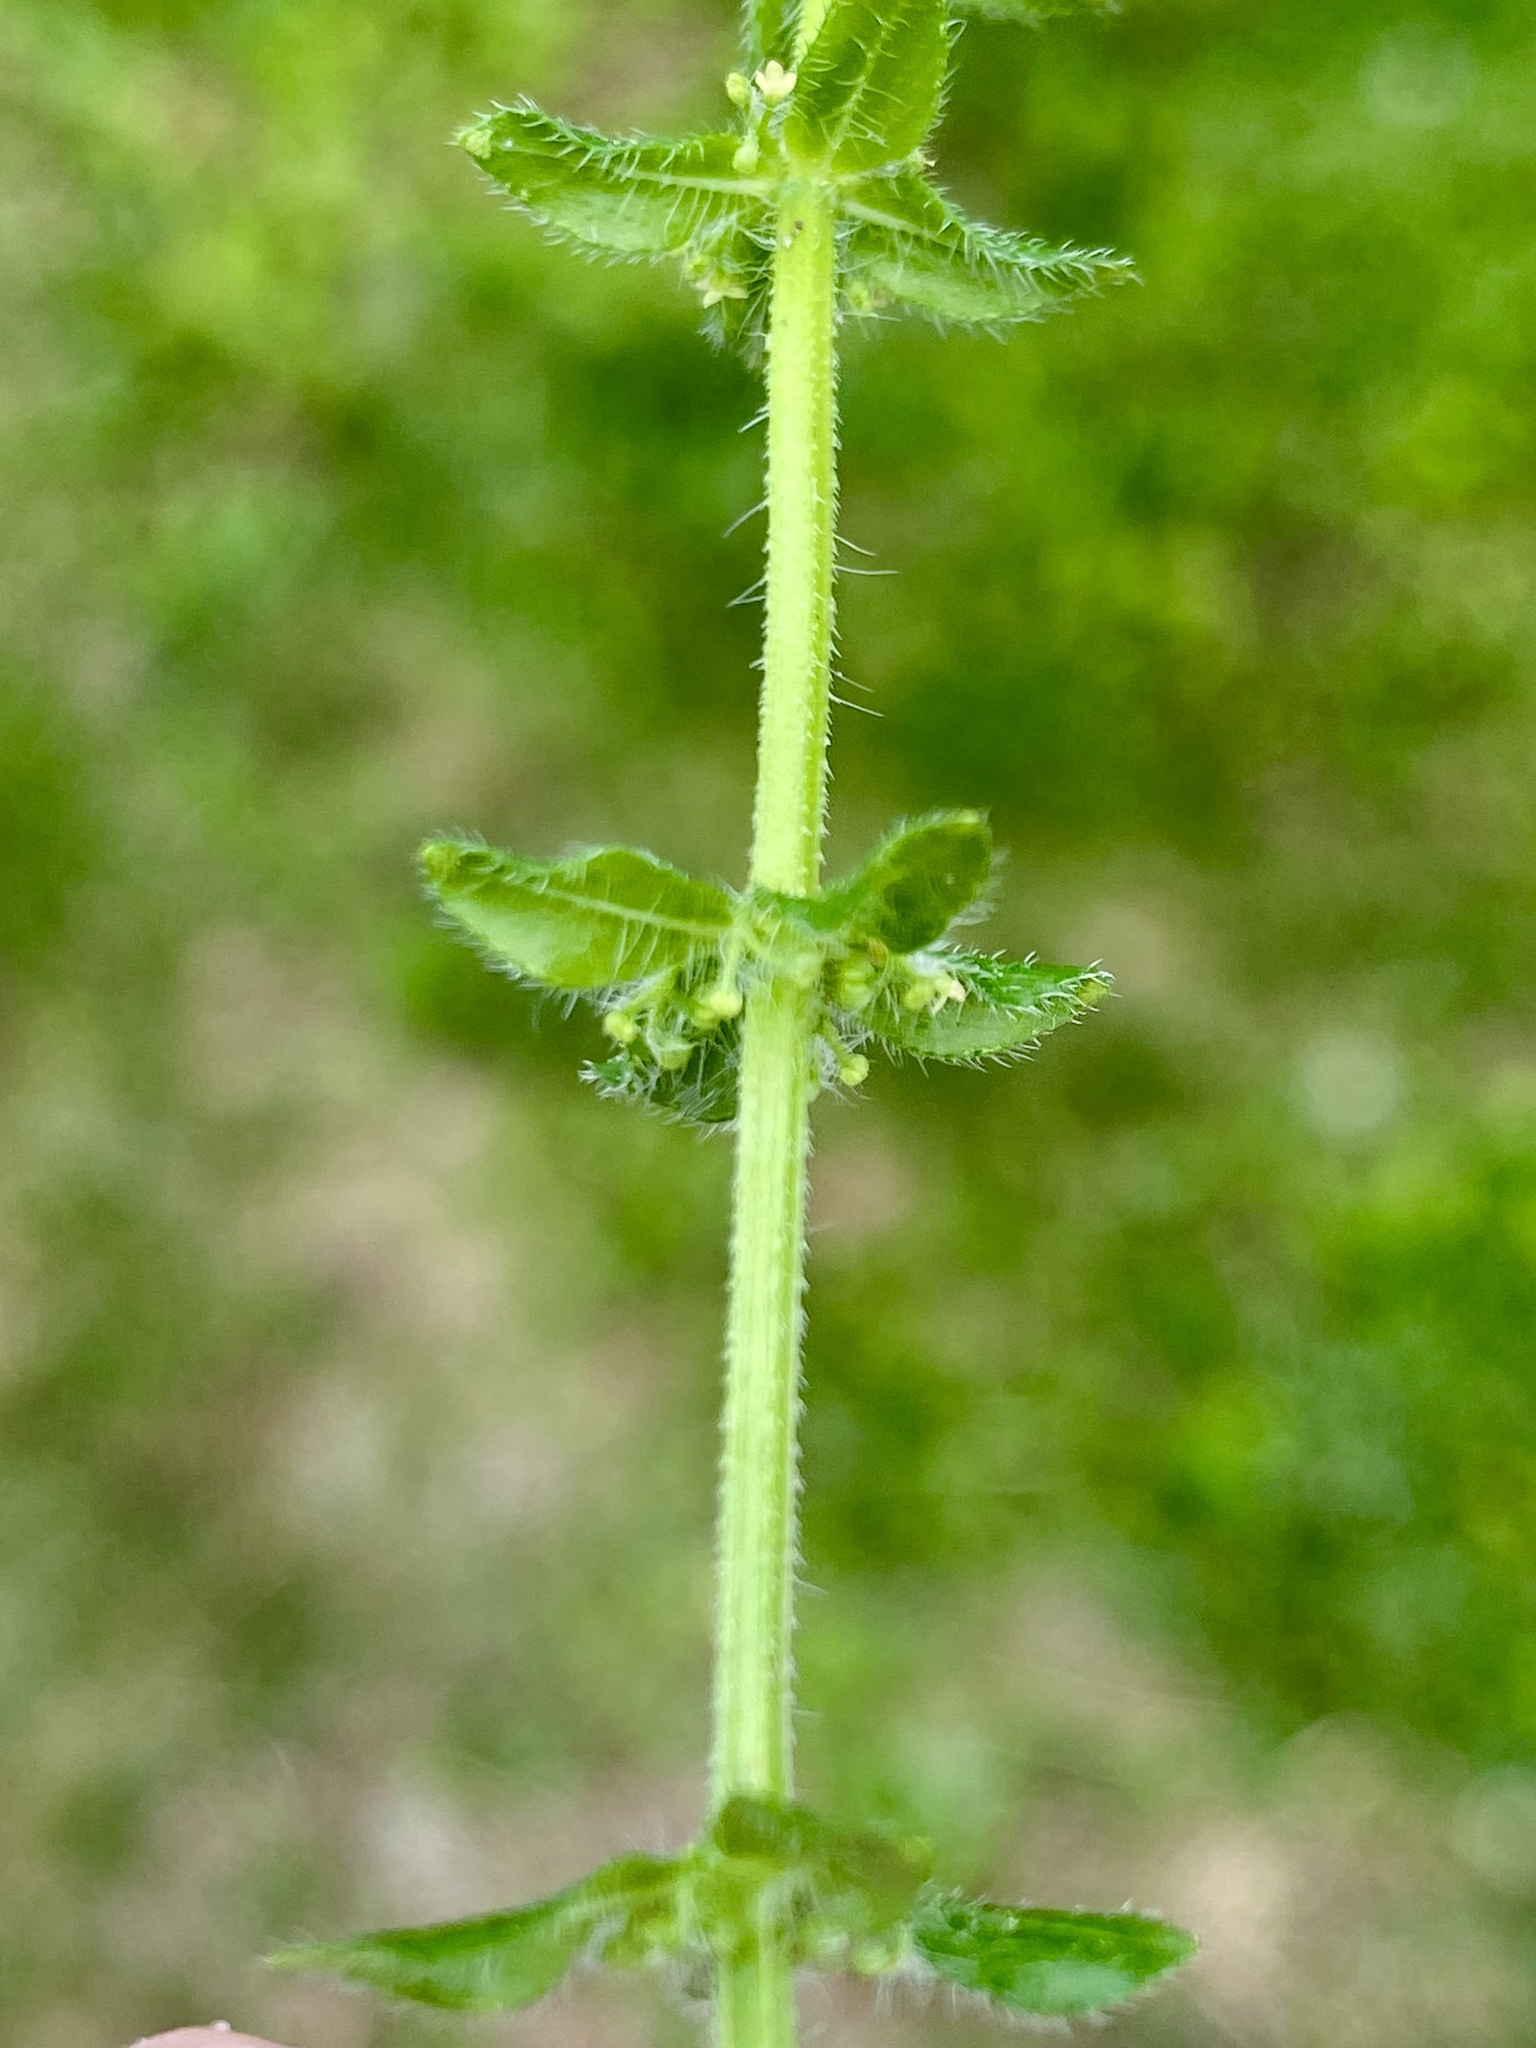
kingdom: Plantae
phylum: Tracheophyta
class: Magnoliopsida
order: Gentianales
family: Rubiaceae
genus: Cruciata
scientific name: Cruciata pedemontana
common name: Piedmont bedstraw
